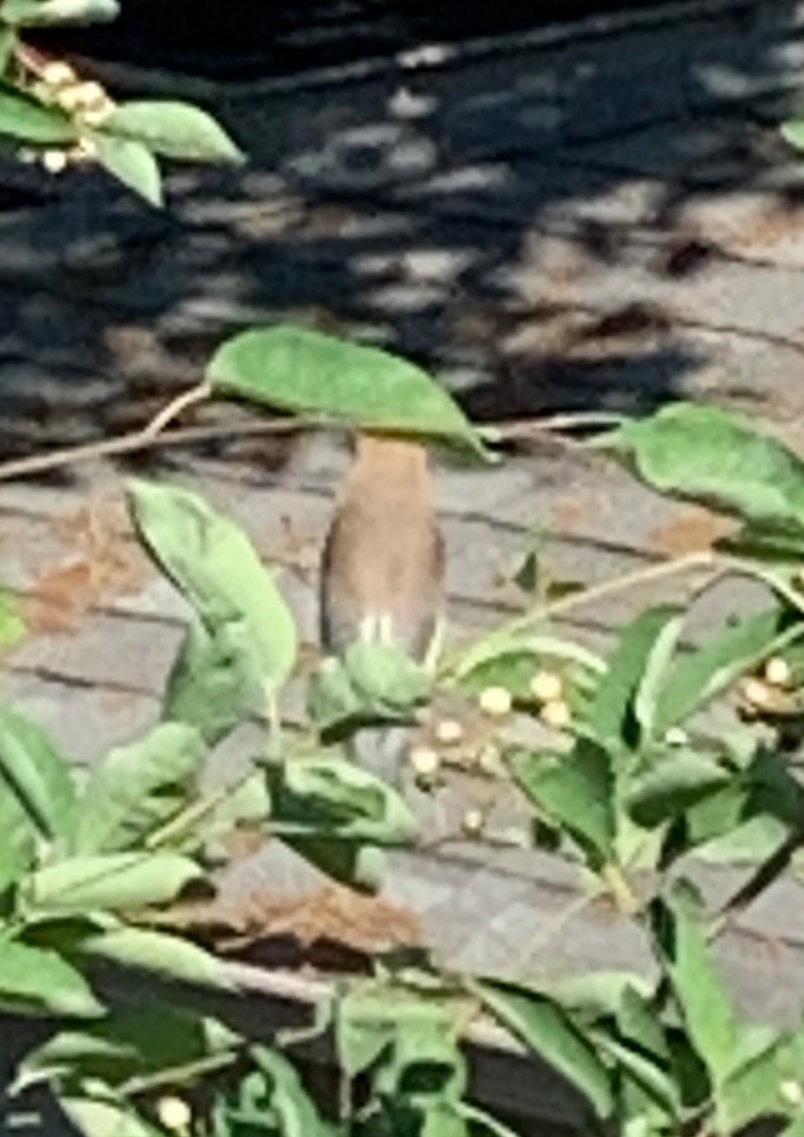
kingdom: Animalia
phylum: Chordata
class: Aves
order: Passeriformes
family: Bombycillidae
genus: Bombycilla
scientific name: Bombycilla cedrorum
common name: Cedar waxwing
